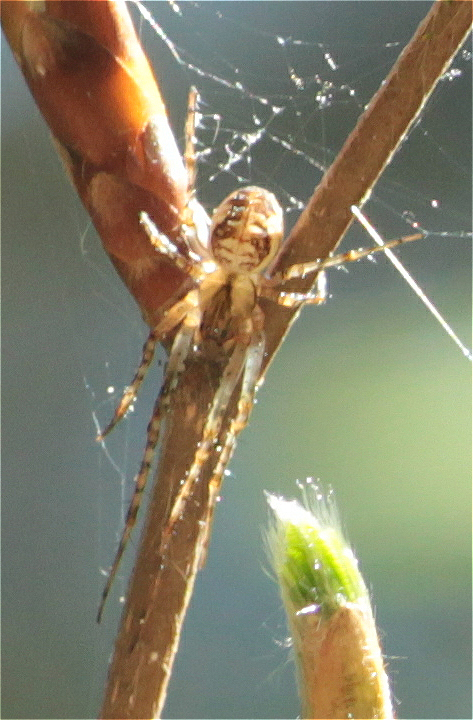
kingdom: Animalia
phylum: Arthropoda
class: Arachnida
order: Araneae
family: Tetragnathidae
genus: Metellina
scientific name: Metellina
